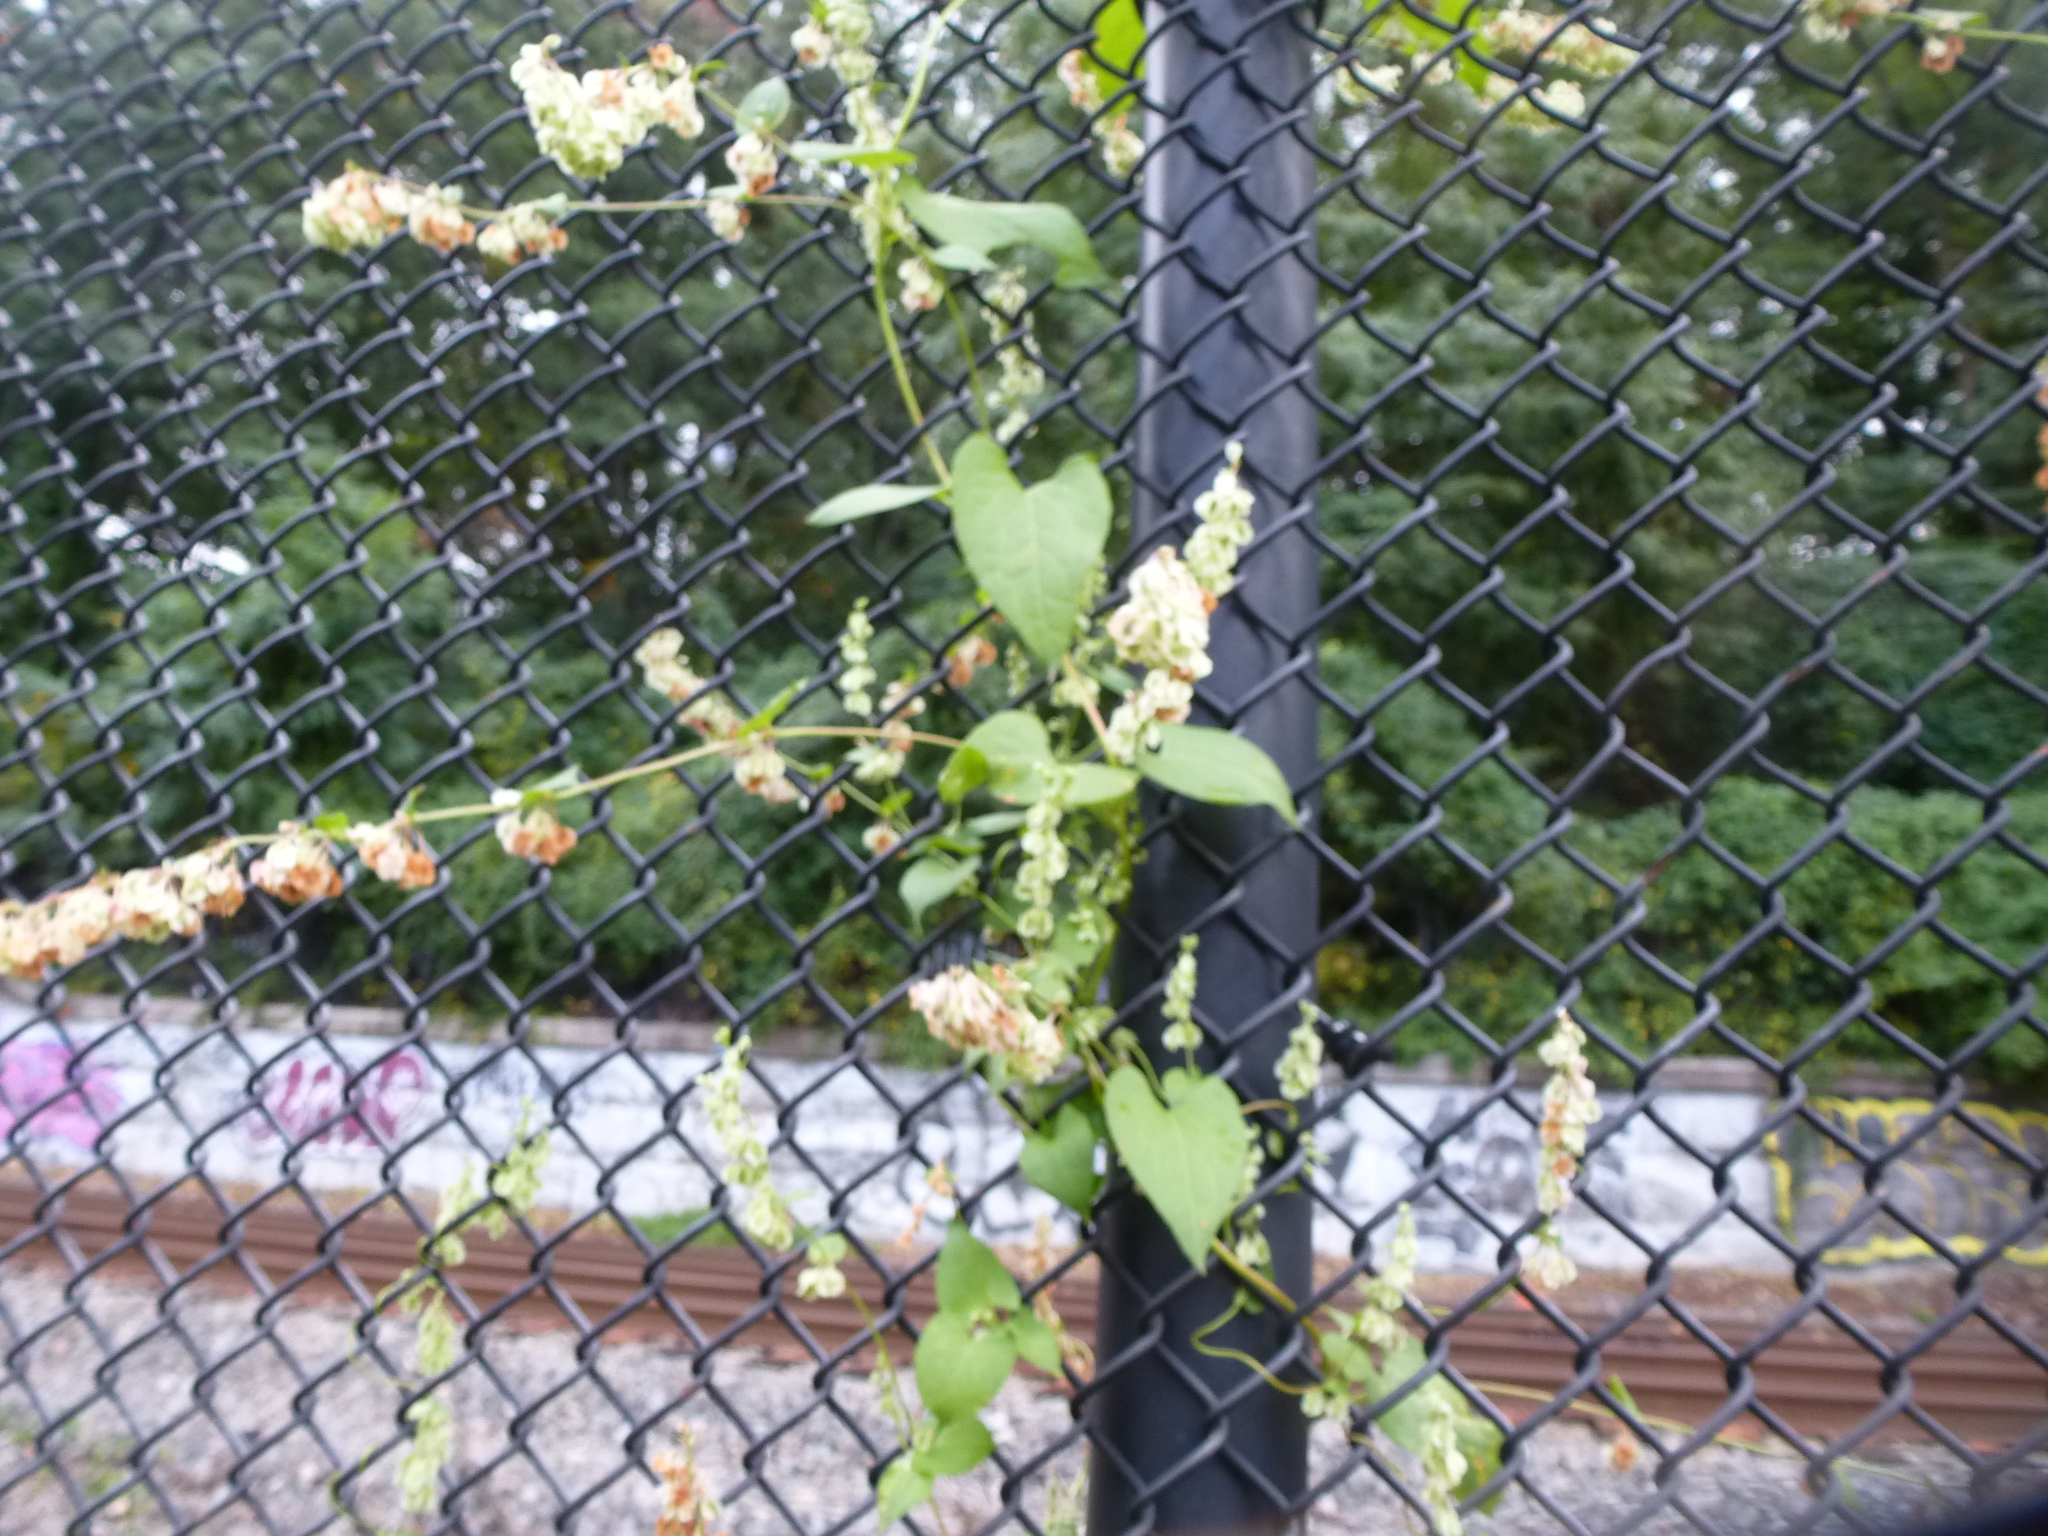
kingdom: Plantae
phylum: Tracheophyta
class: Magnoliopsida
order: Caryophyllales
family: Polygonaceae
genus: Fallopia
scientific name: Fallopia scandens
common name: Climbing false buckwheat
